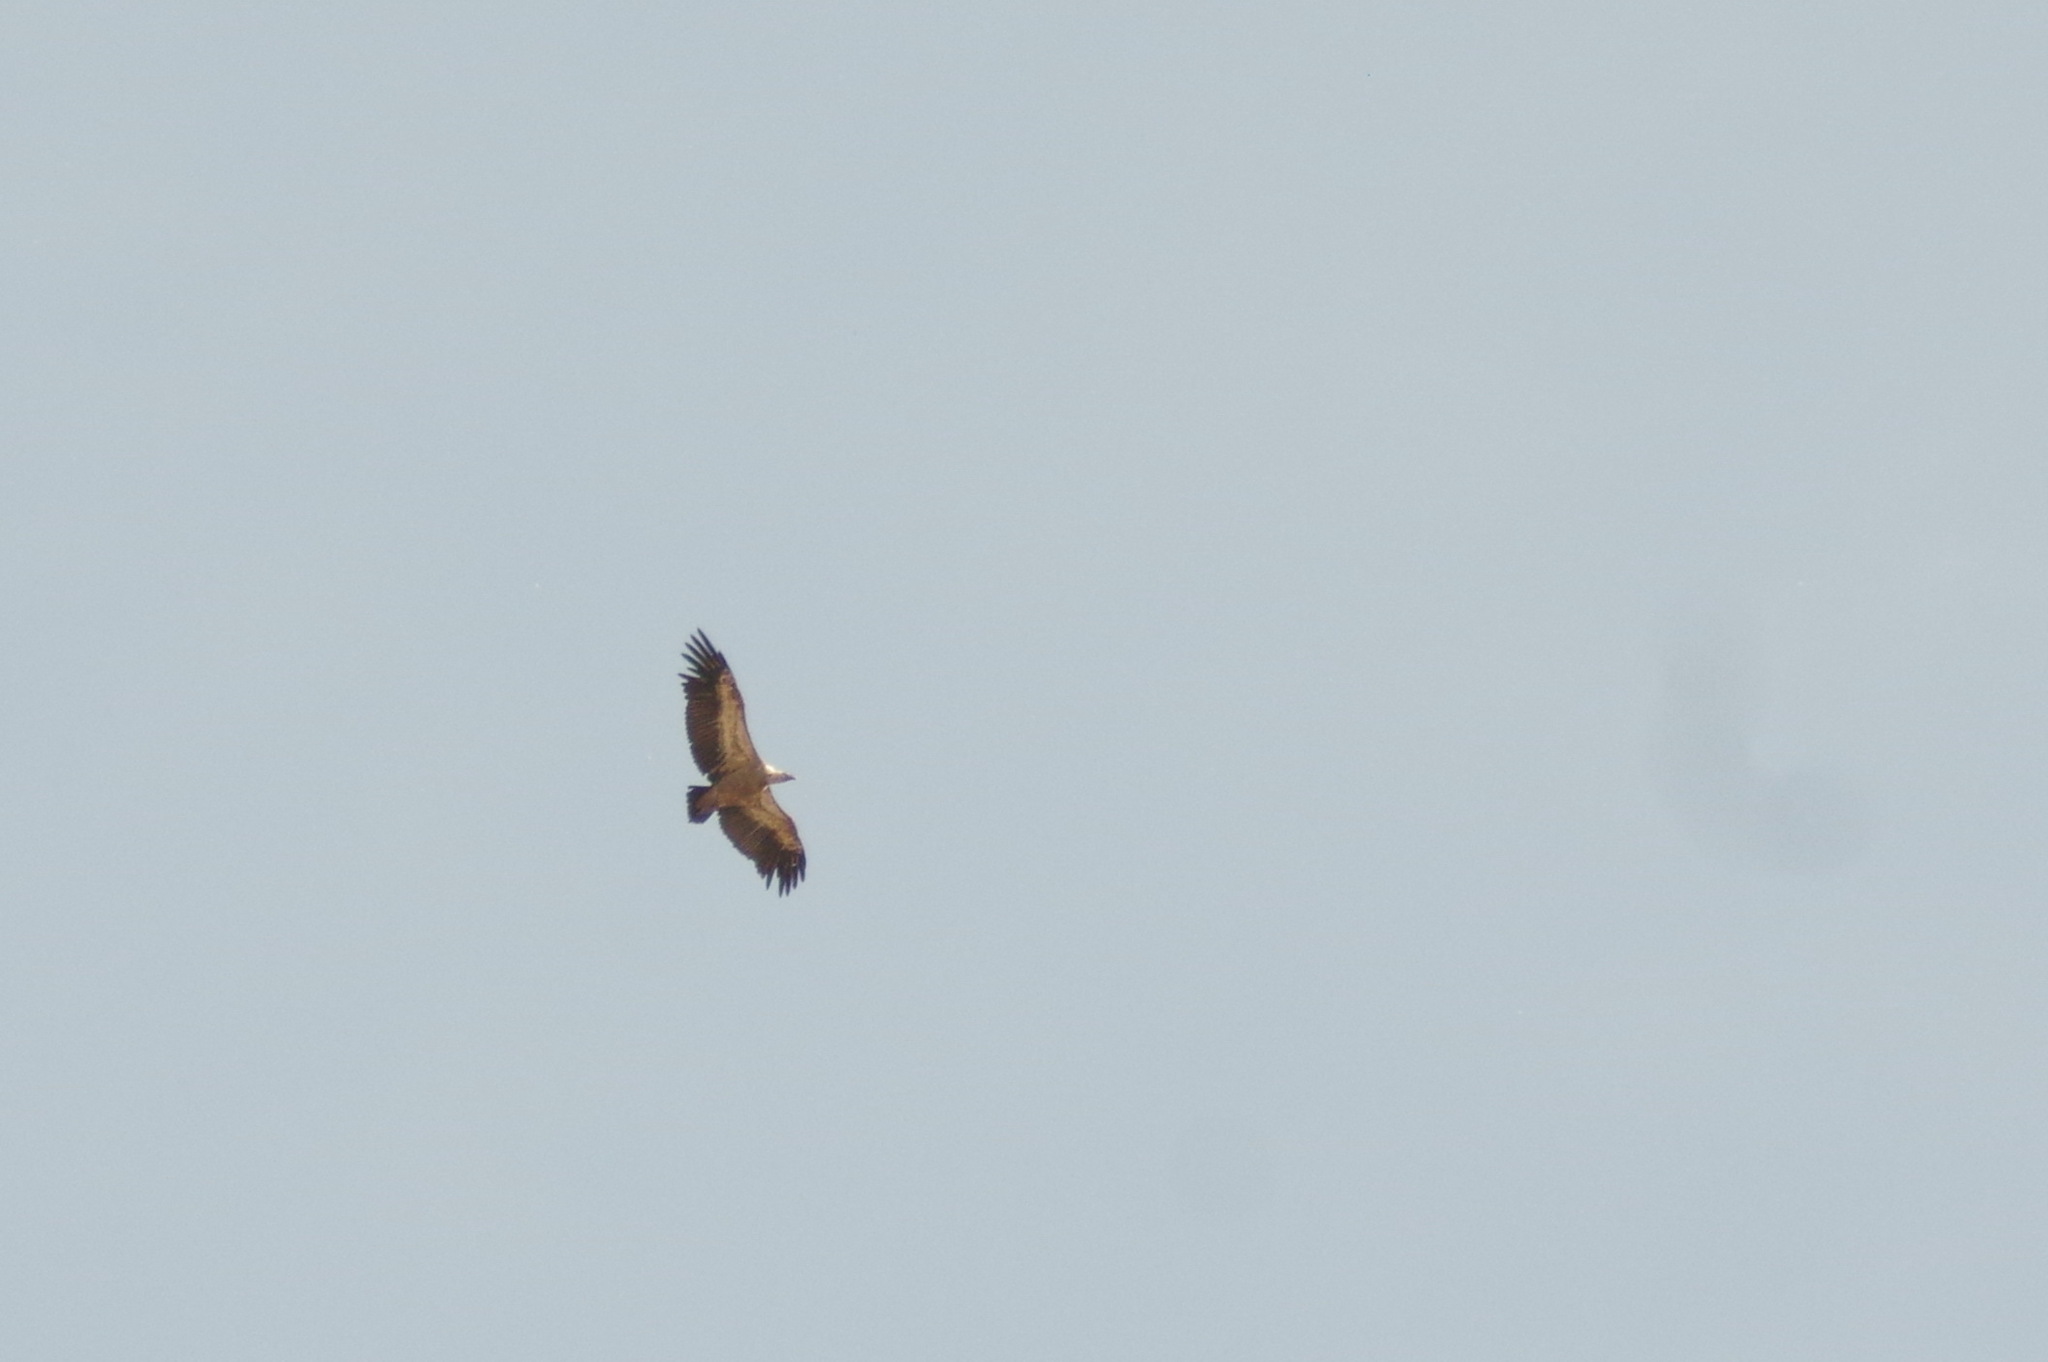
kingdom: Animalia
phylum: Chordata
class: Aves
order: Accipitriformes
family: Accipitridae
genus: Gyps
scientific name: Gyps fulvus
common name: Griffon vulture
